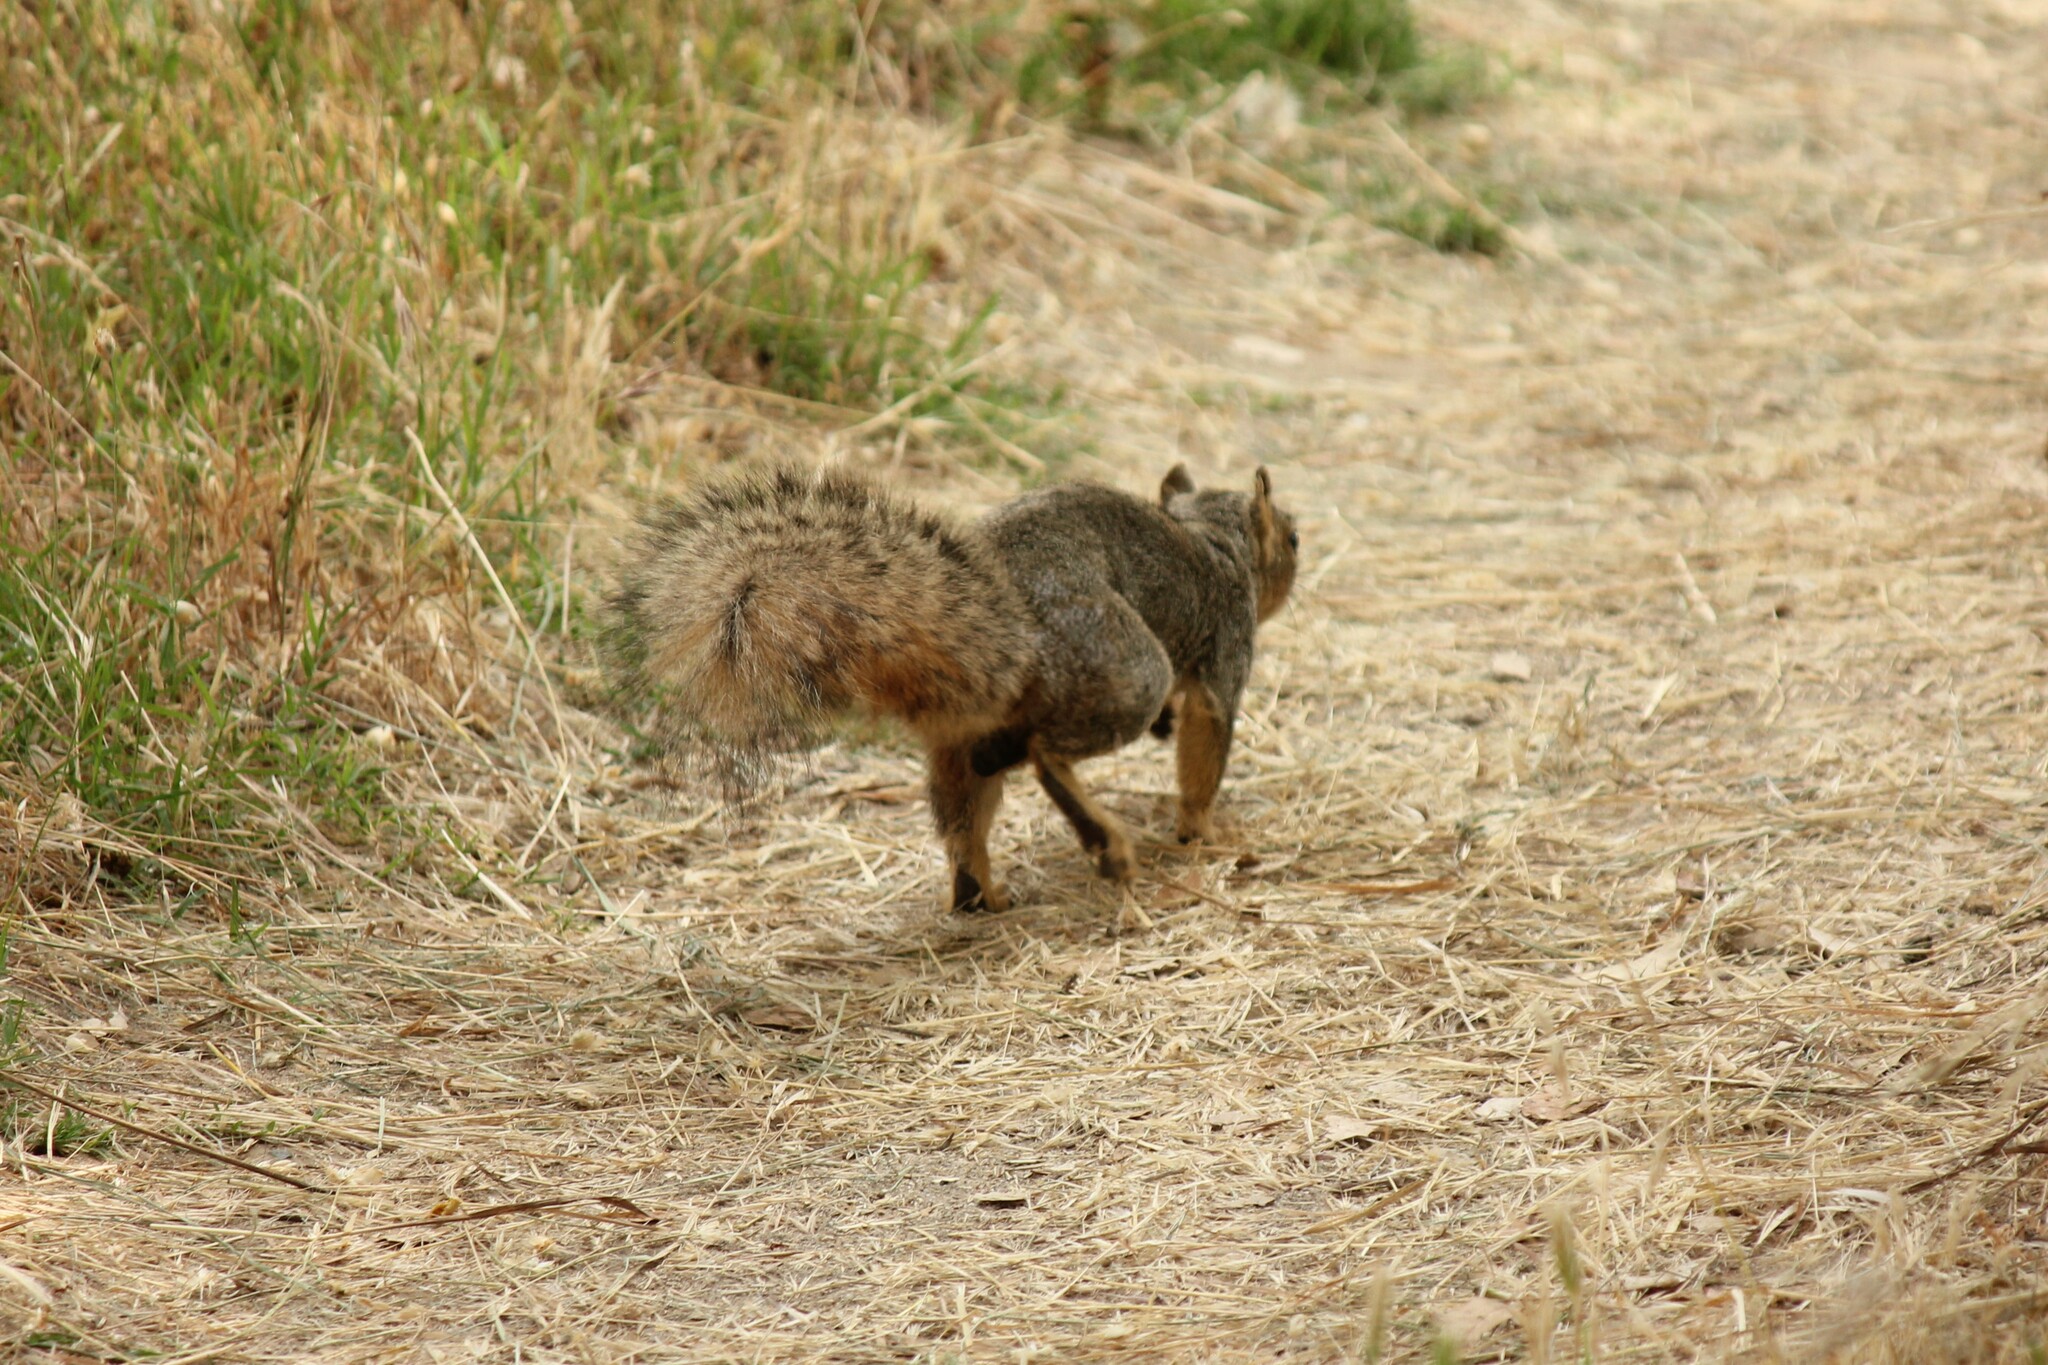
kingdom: Animalia
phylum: Chordata
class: Mammalia
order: Rodentia
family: Sciuridae
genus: Sciurus
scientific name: Sciurus niger
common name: Fox squirrel
